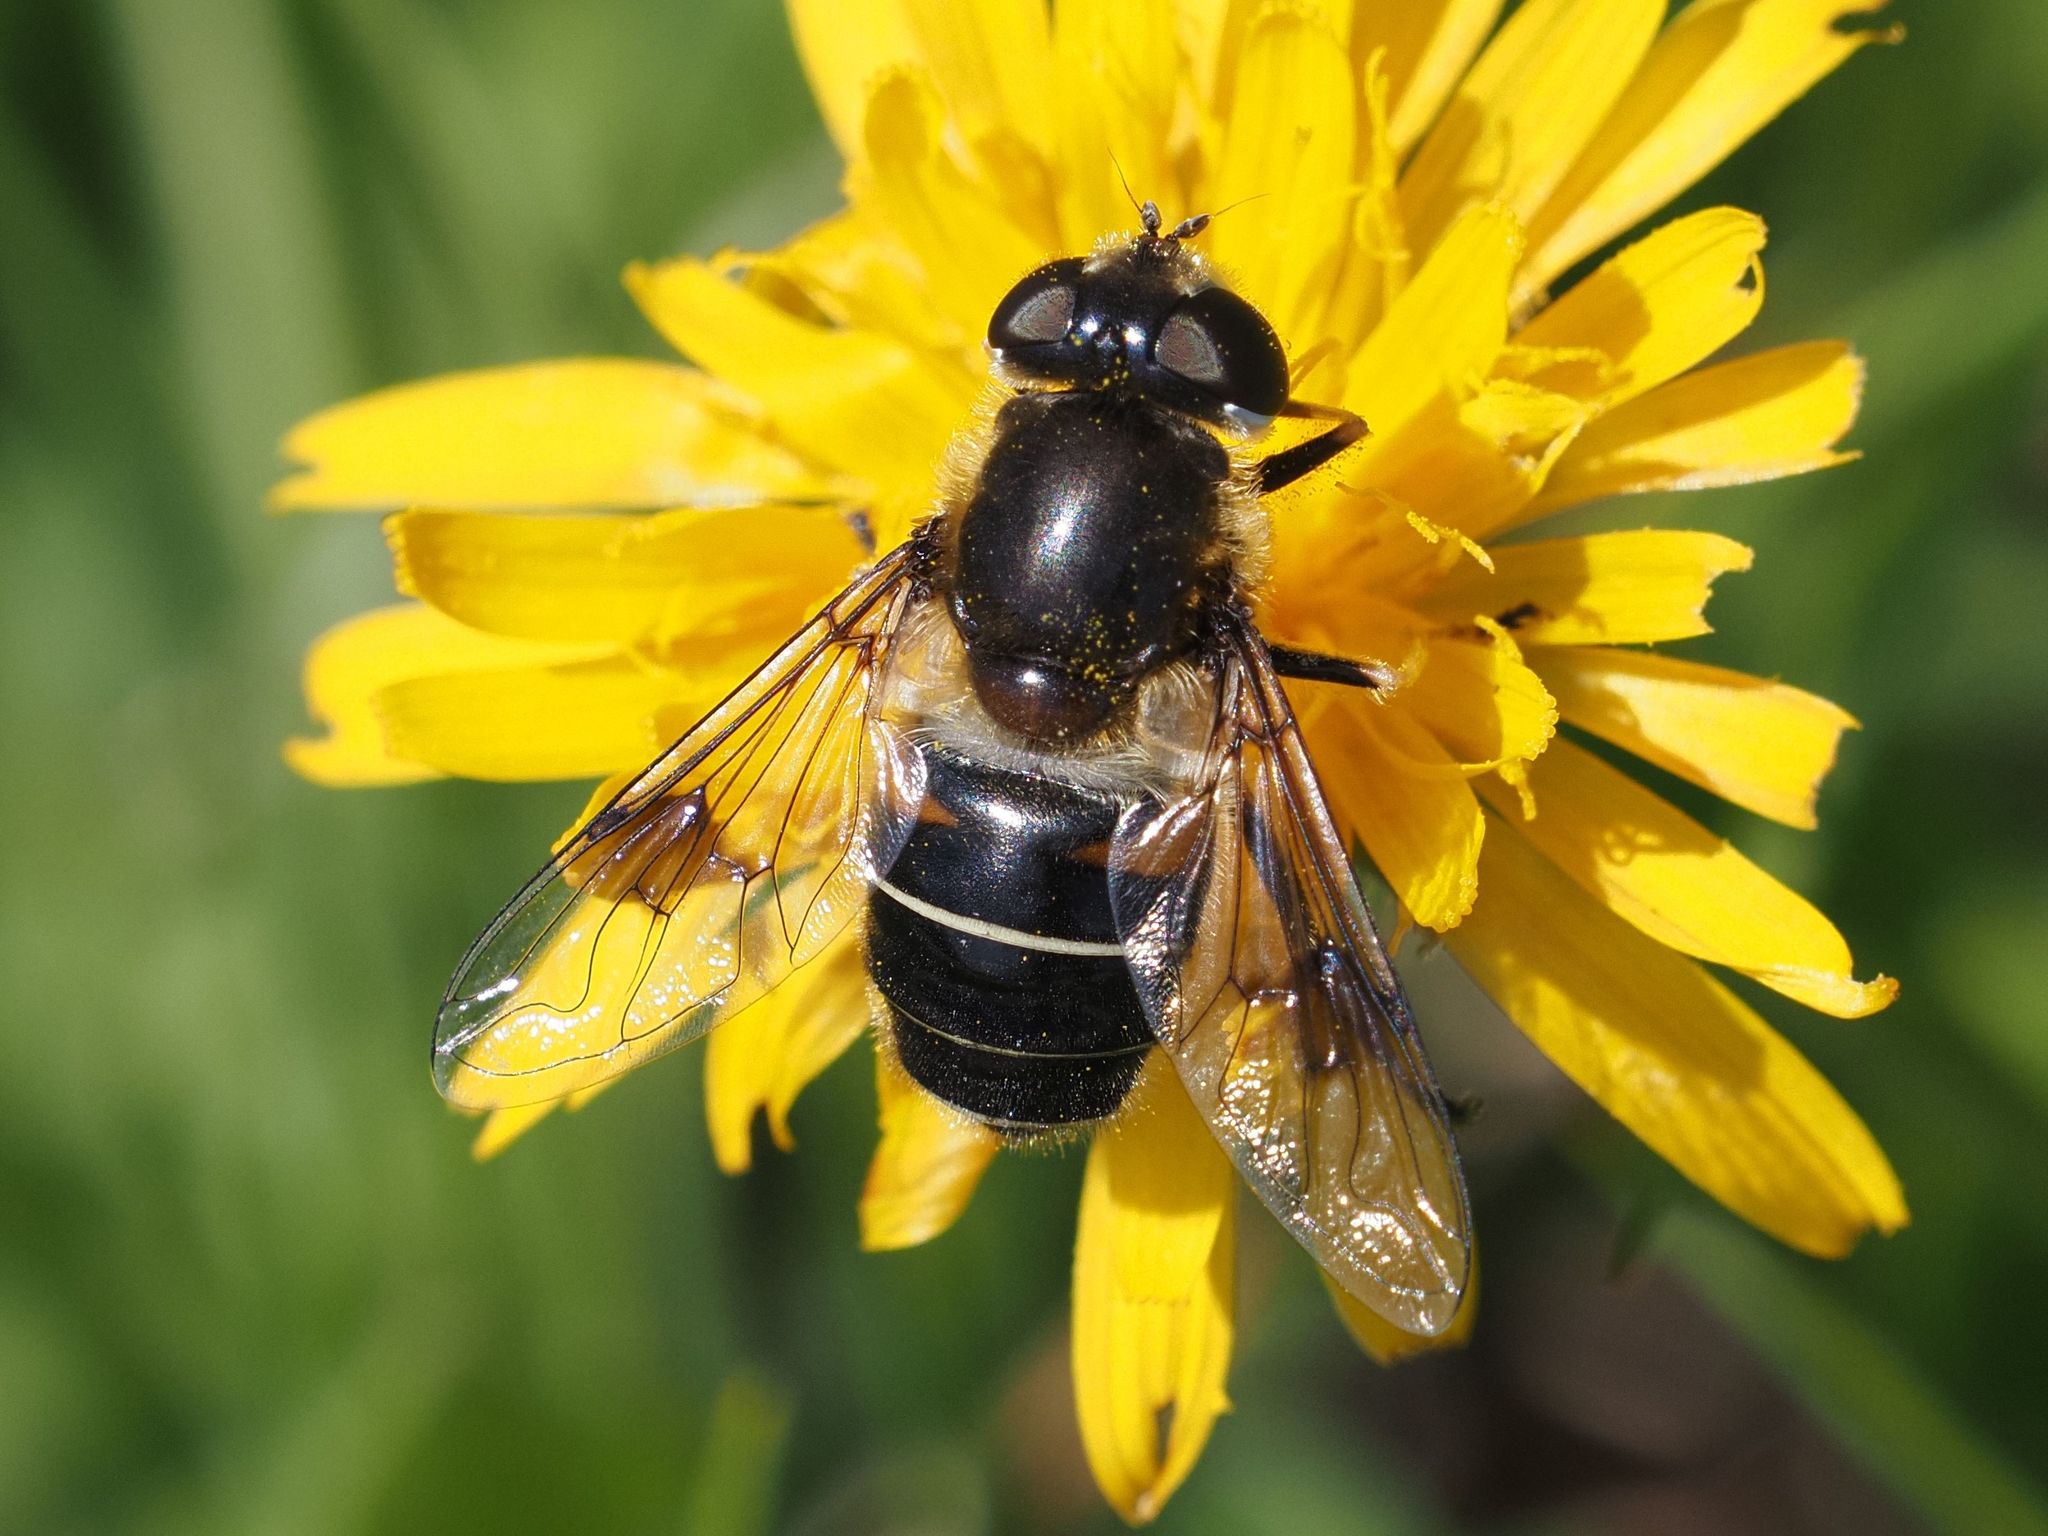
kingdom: Animalia
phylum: Arthropoda
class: Insecta
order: Diptera
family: Syrphidae
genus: Eristalis
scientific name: Eristalis rupium
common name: Hover fly
